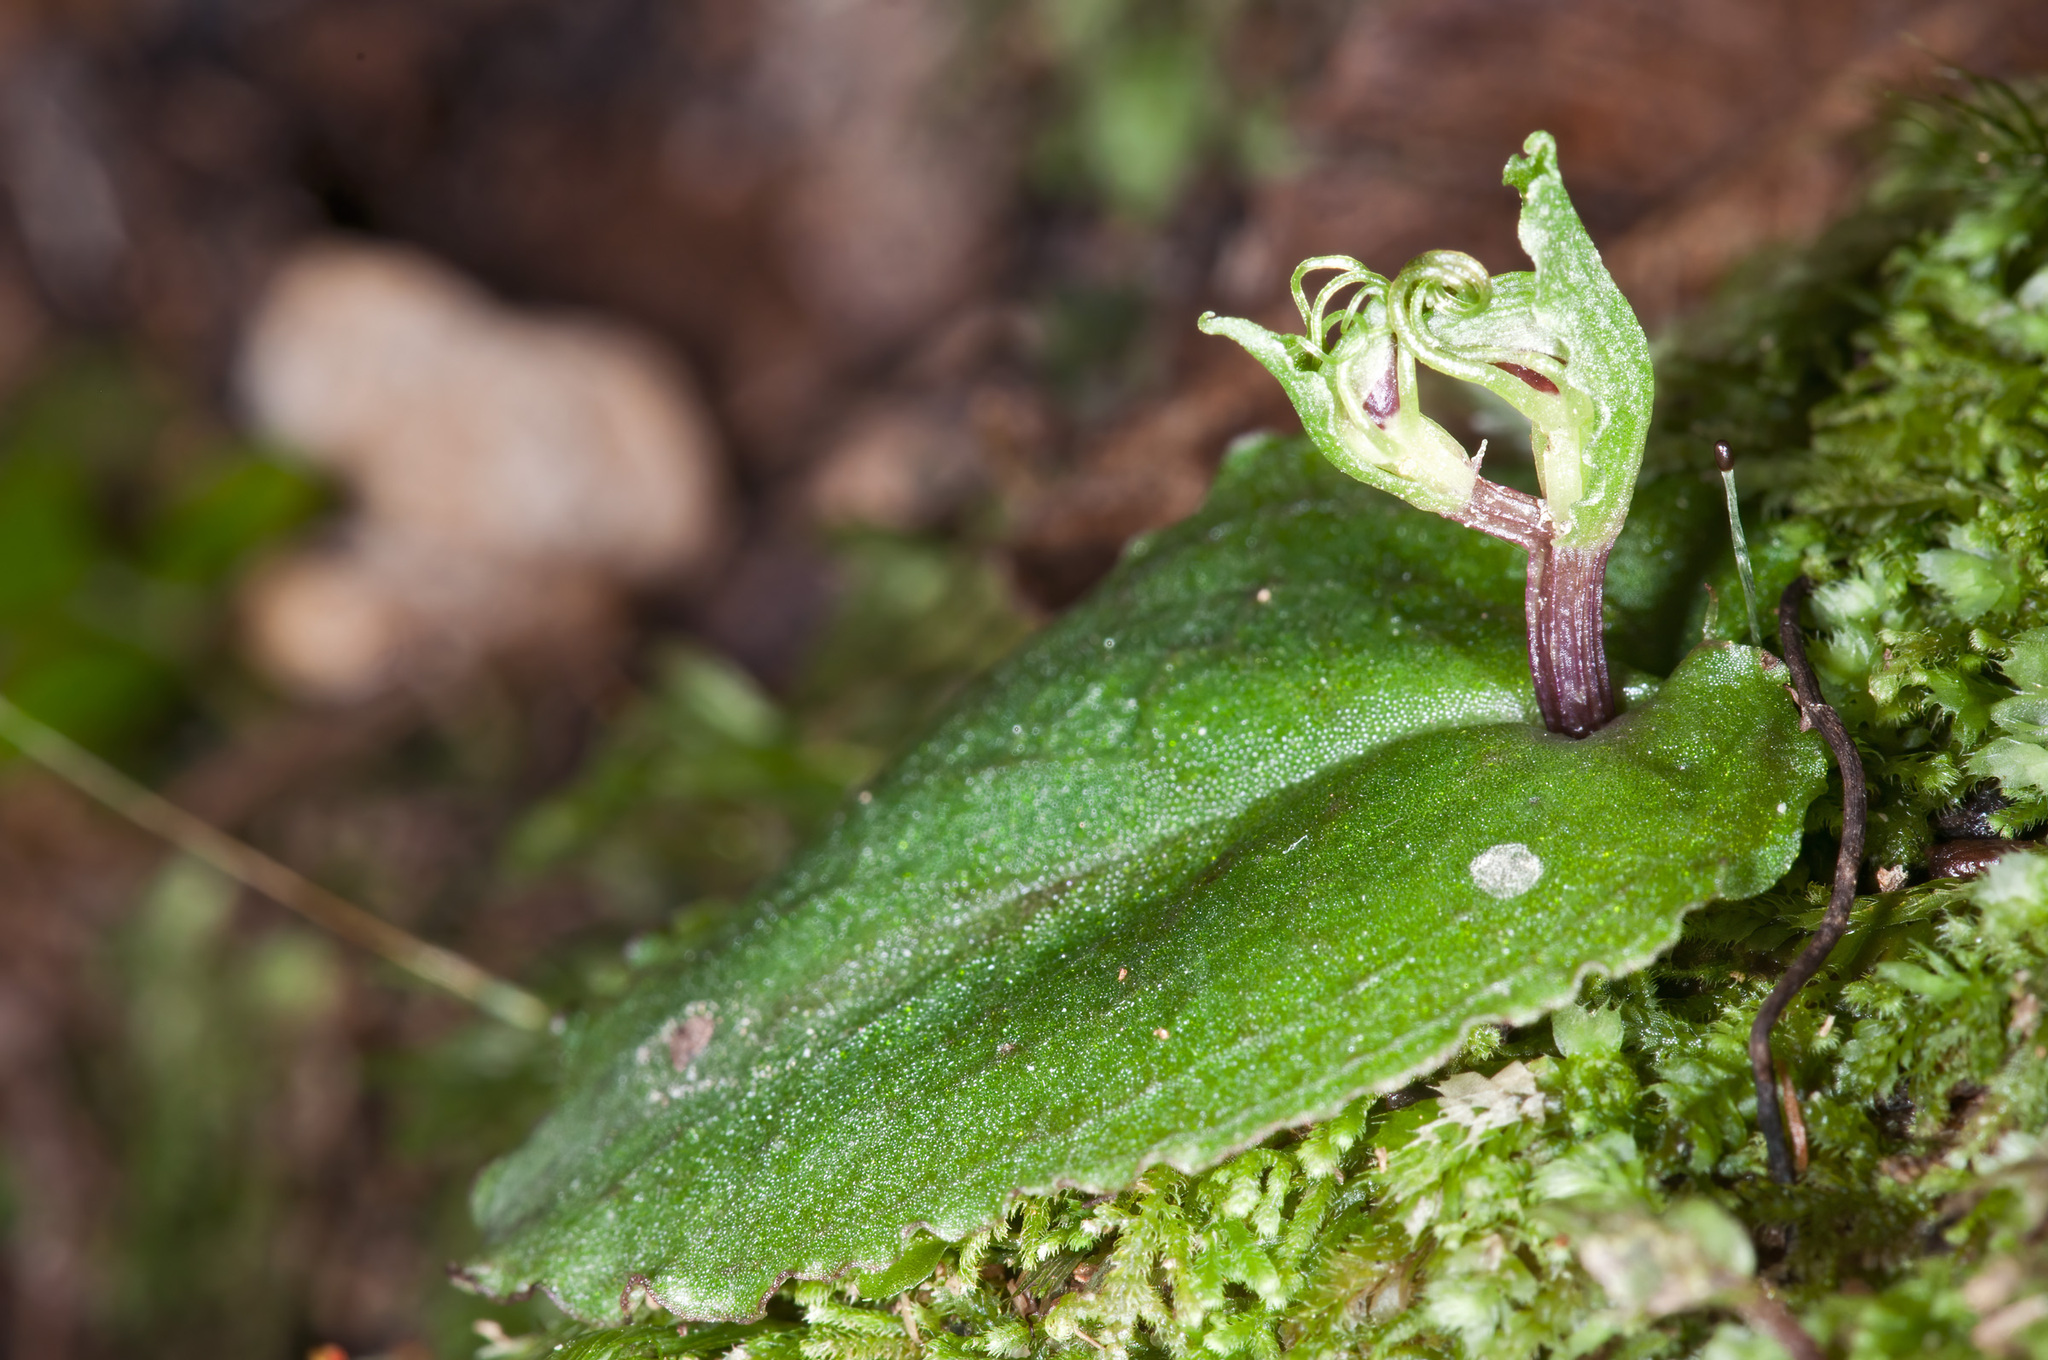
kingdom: Plantae
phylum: Tracheophyta
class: Liliopsida
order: Asparagales
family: Orchidaceae
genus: Corybas
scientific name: Corybas oblongus
